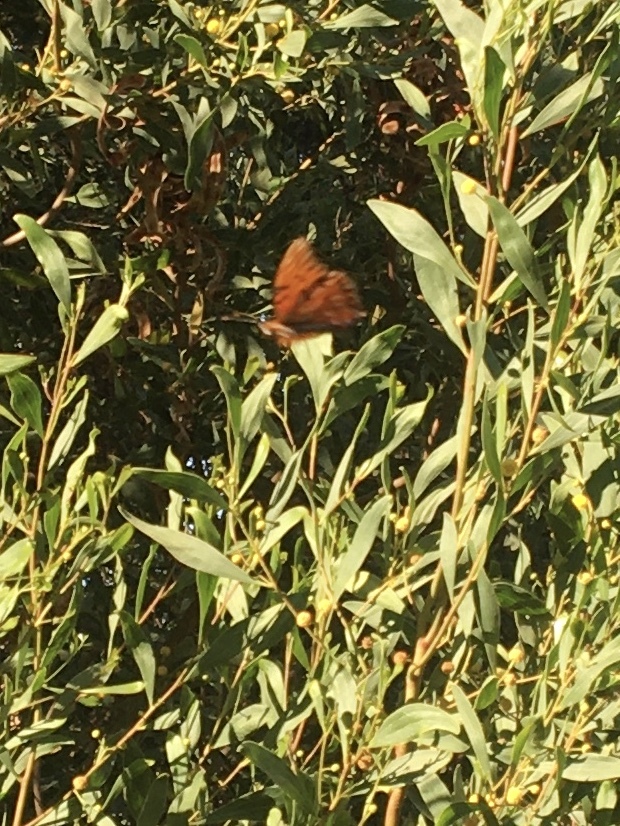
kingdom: Animalia
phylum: Arthropoda
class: Insecta
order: Lepidoptera
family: Nymphalidae
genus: Dione
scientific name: Dione vanillae
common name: Gulf fritillary
